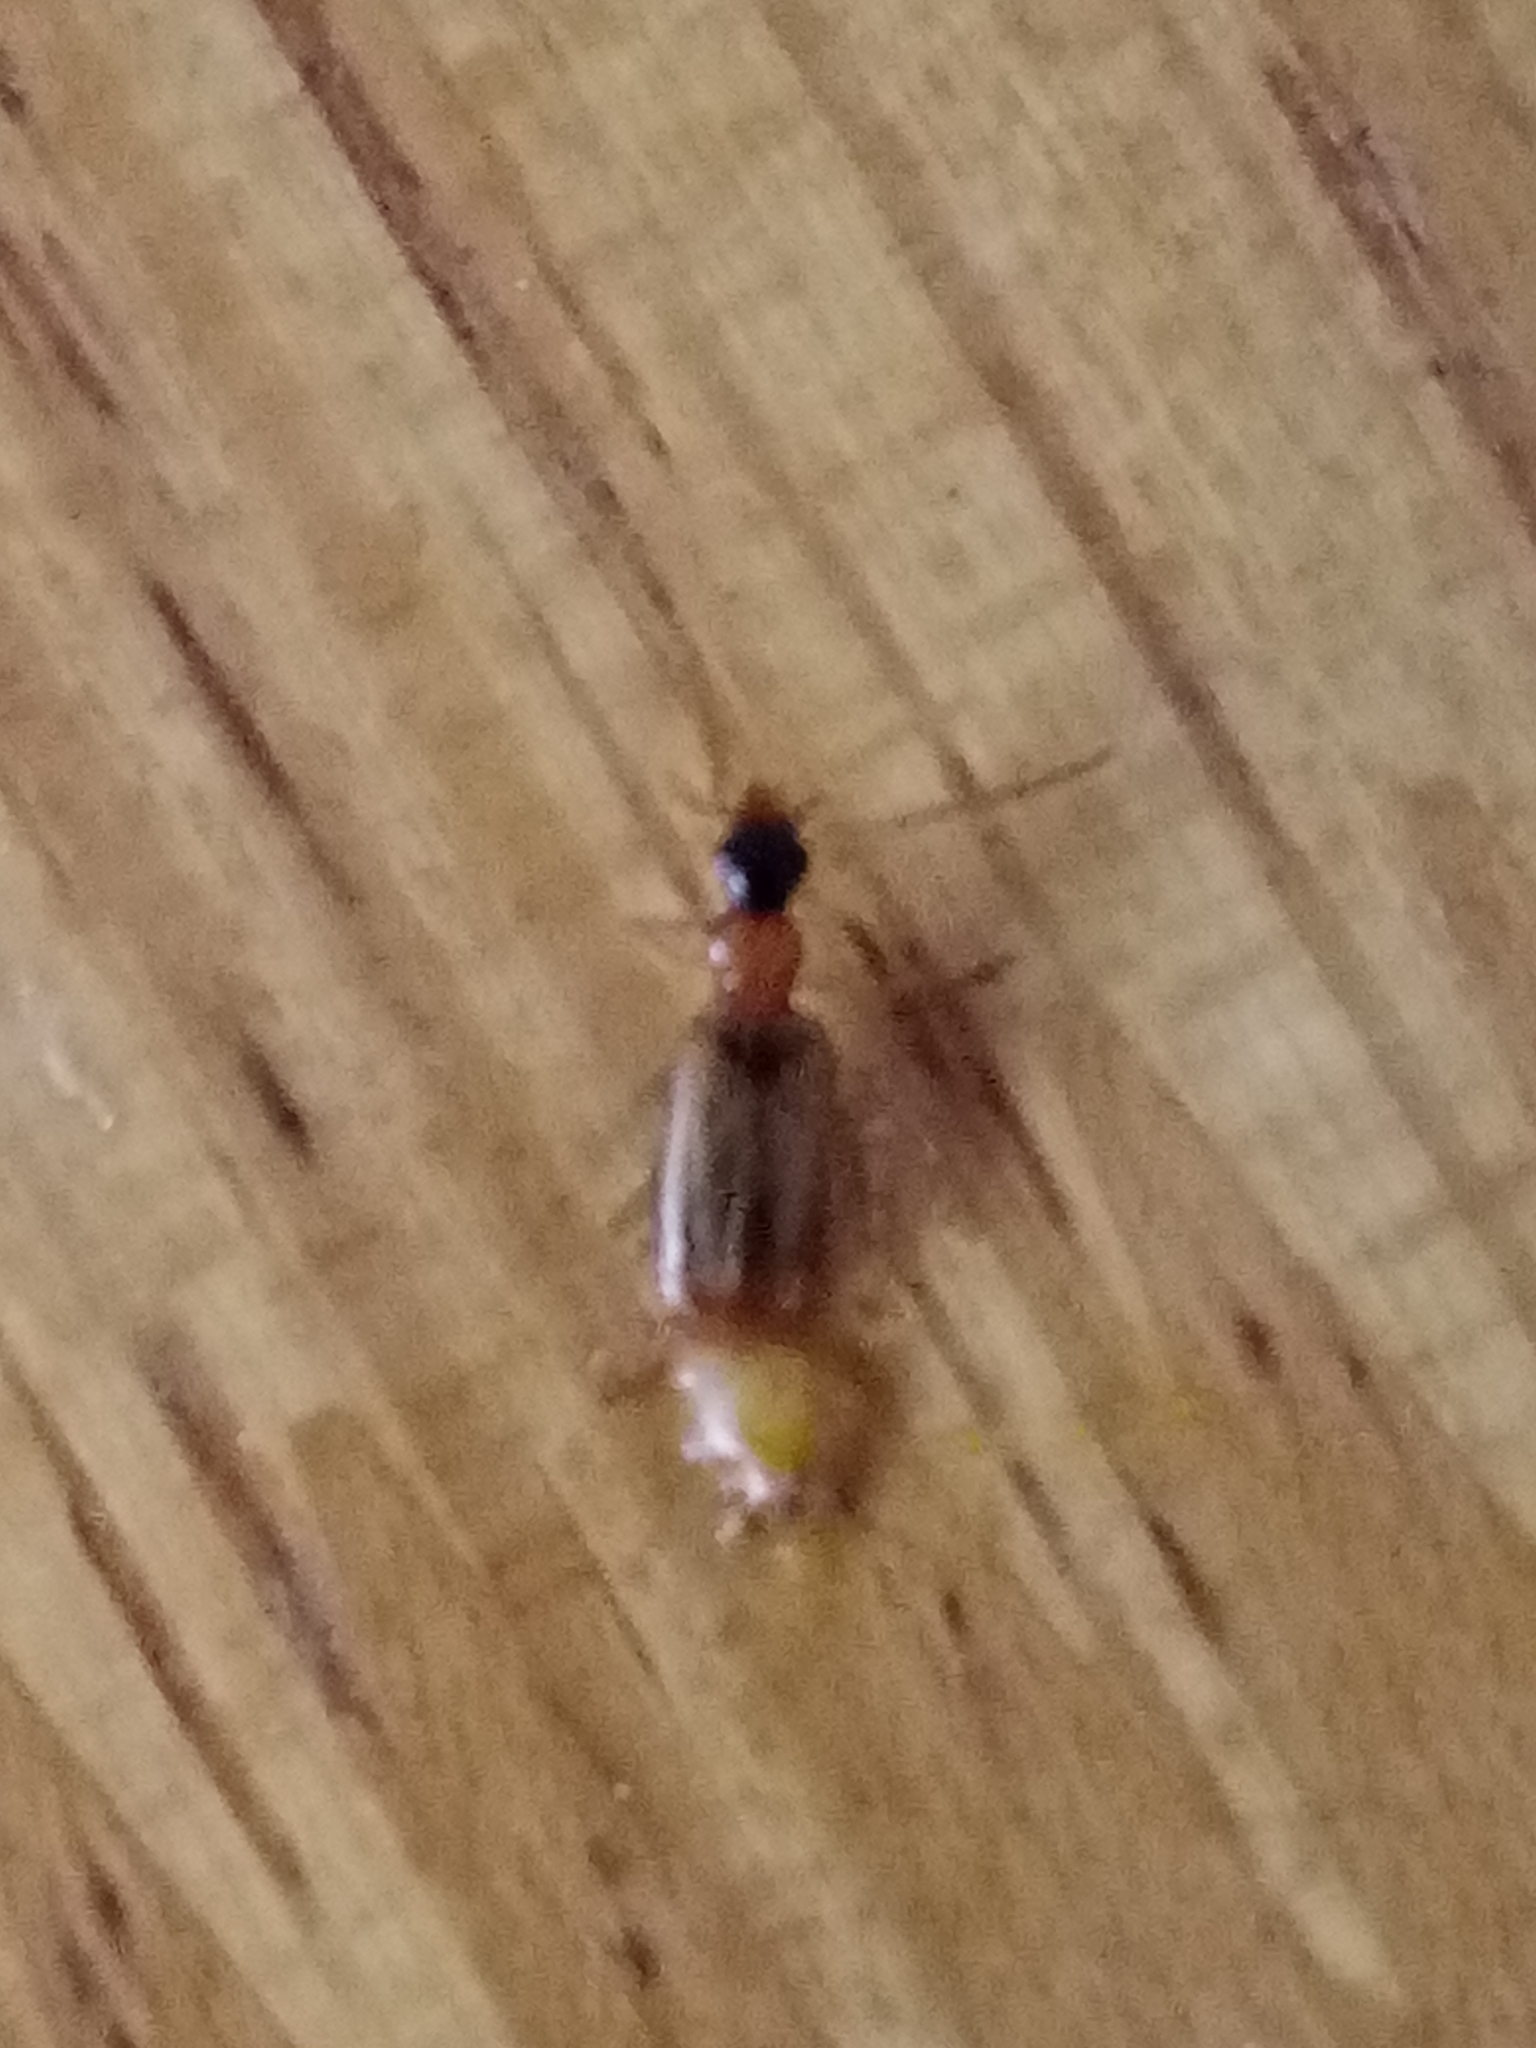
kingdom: Animalia
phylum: Arthropoda
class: Insecta
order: Coleoptera
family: Carabidae
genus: Demetrias
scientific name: Demetrias atricapillus
